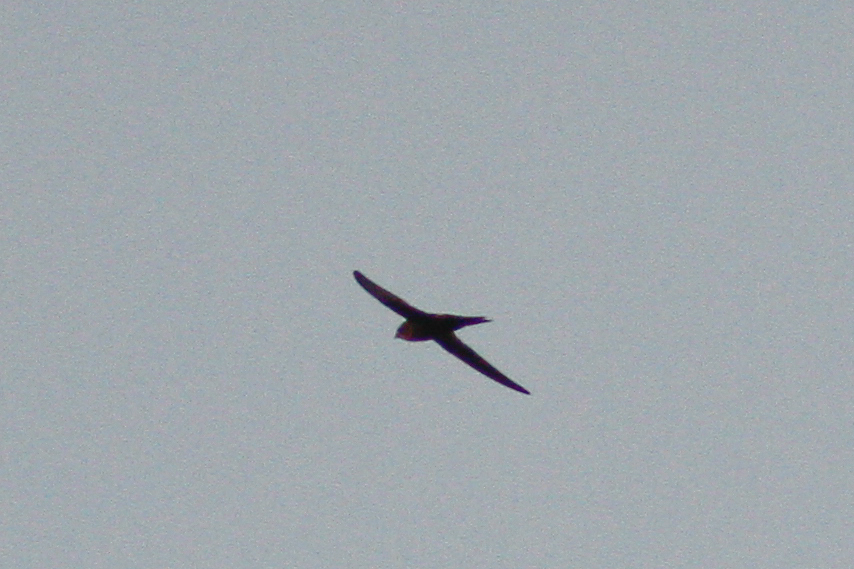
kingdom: Animalia
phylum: Chordata
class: Aves
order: Apodiformes
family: Apodidae
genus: Apus
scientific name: Apus pacificus
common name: Pacific swift
